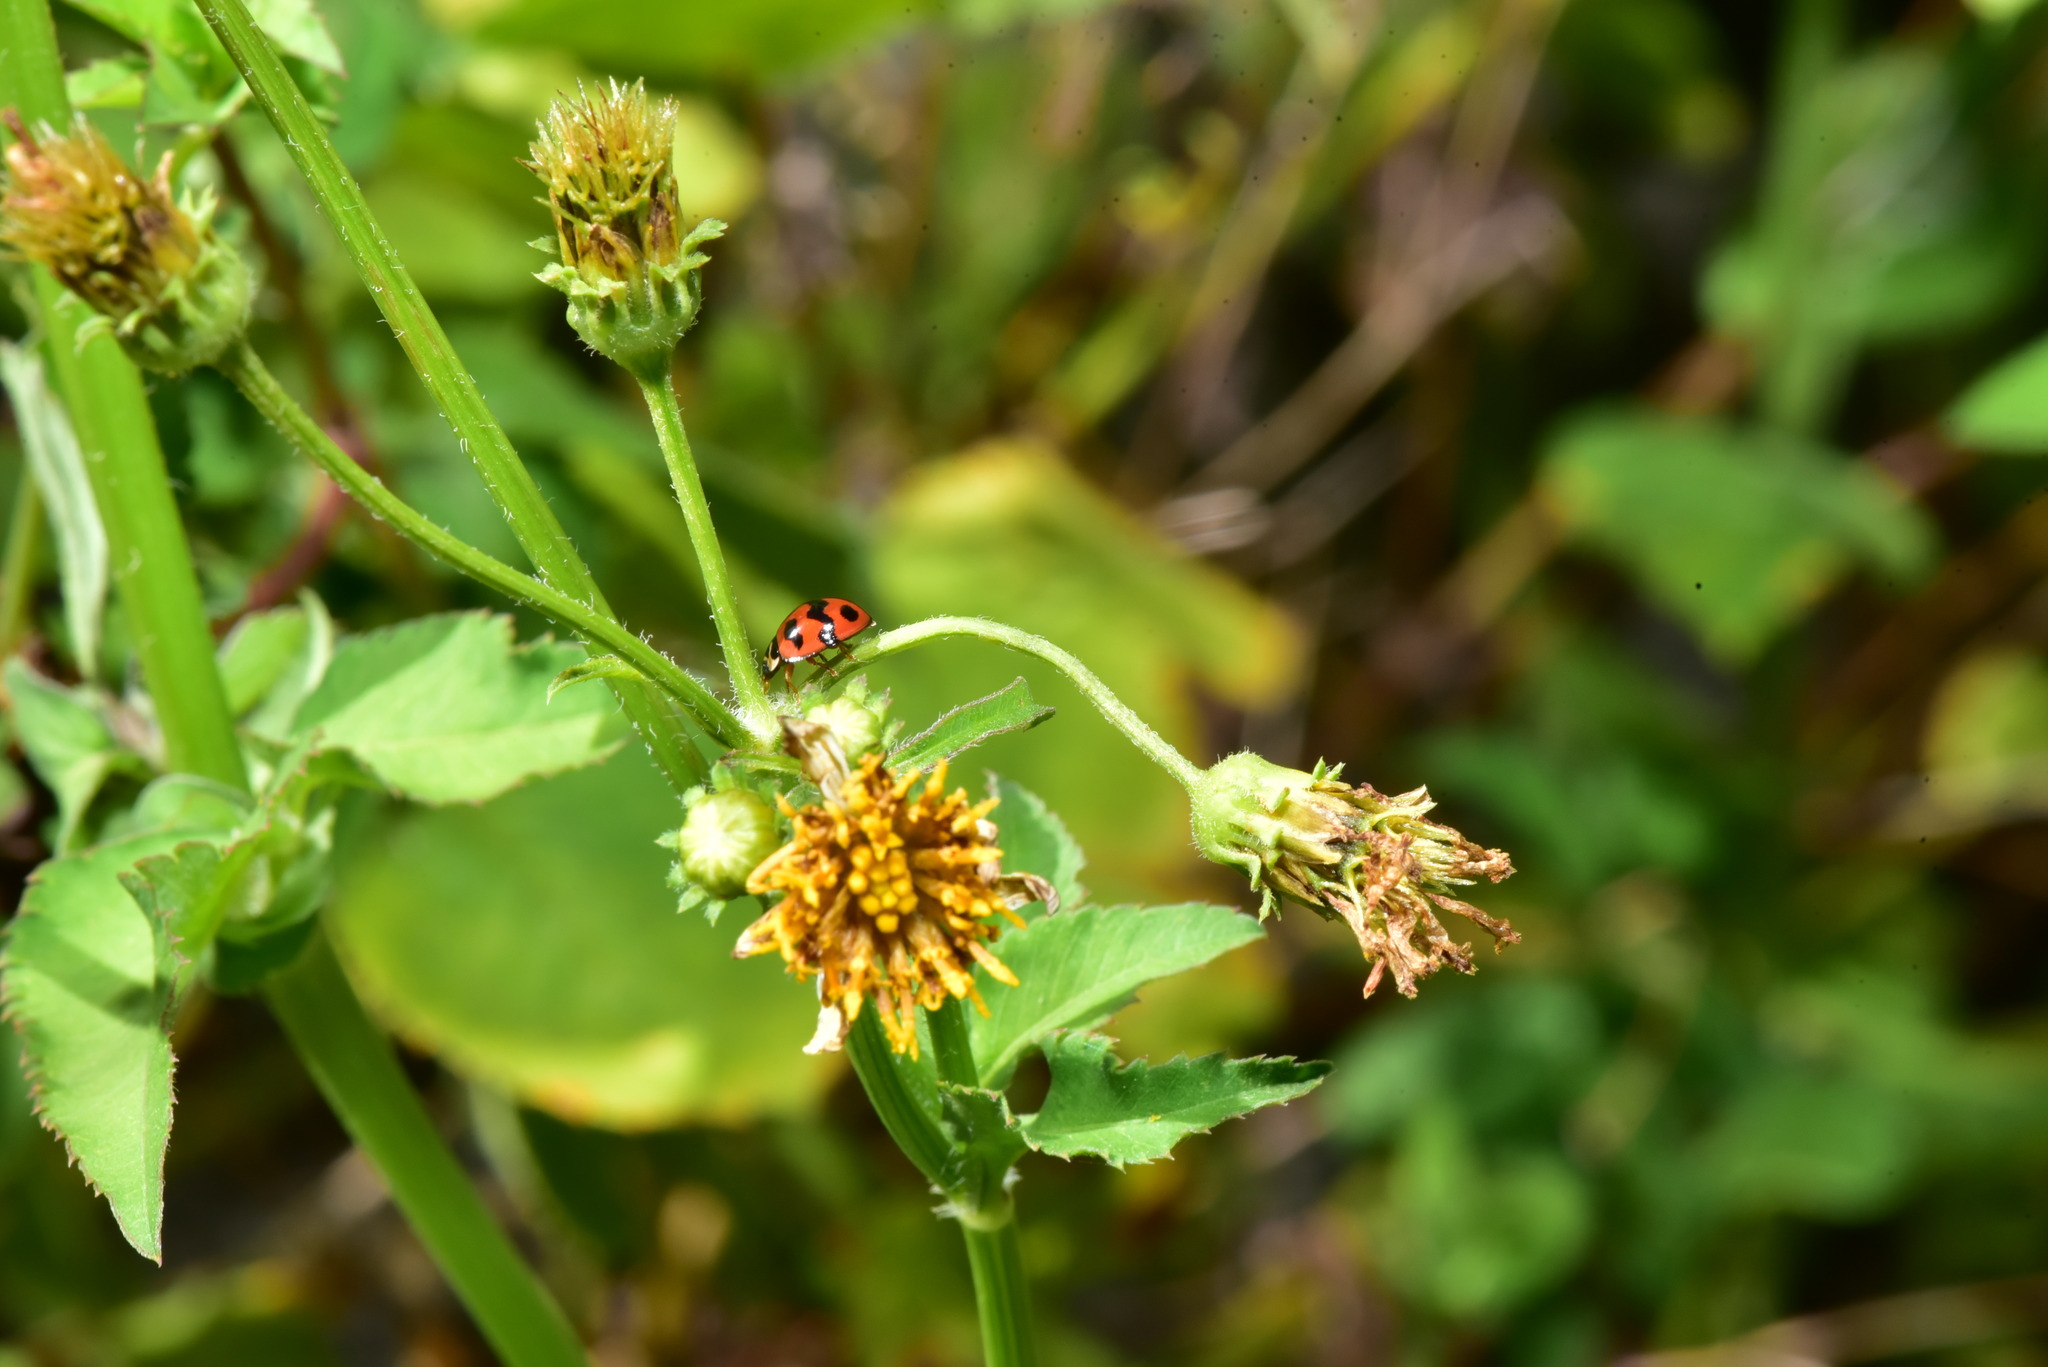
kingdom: Animalia
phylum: Arthropoda
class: Insecta
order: Coleoptera
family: Coccinellidae
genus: Cheilomenes
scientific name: Cheilomenes sexmaculata
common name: Ladybird beetle
